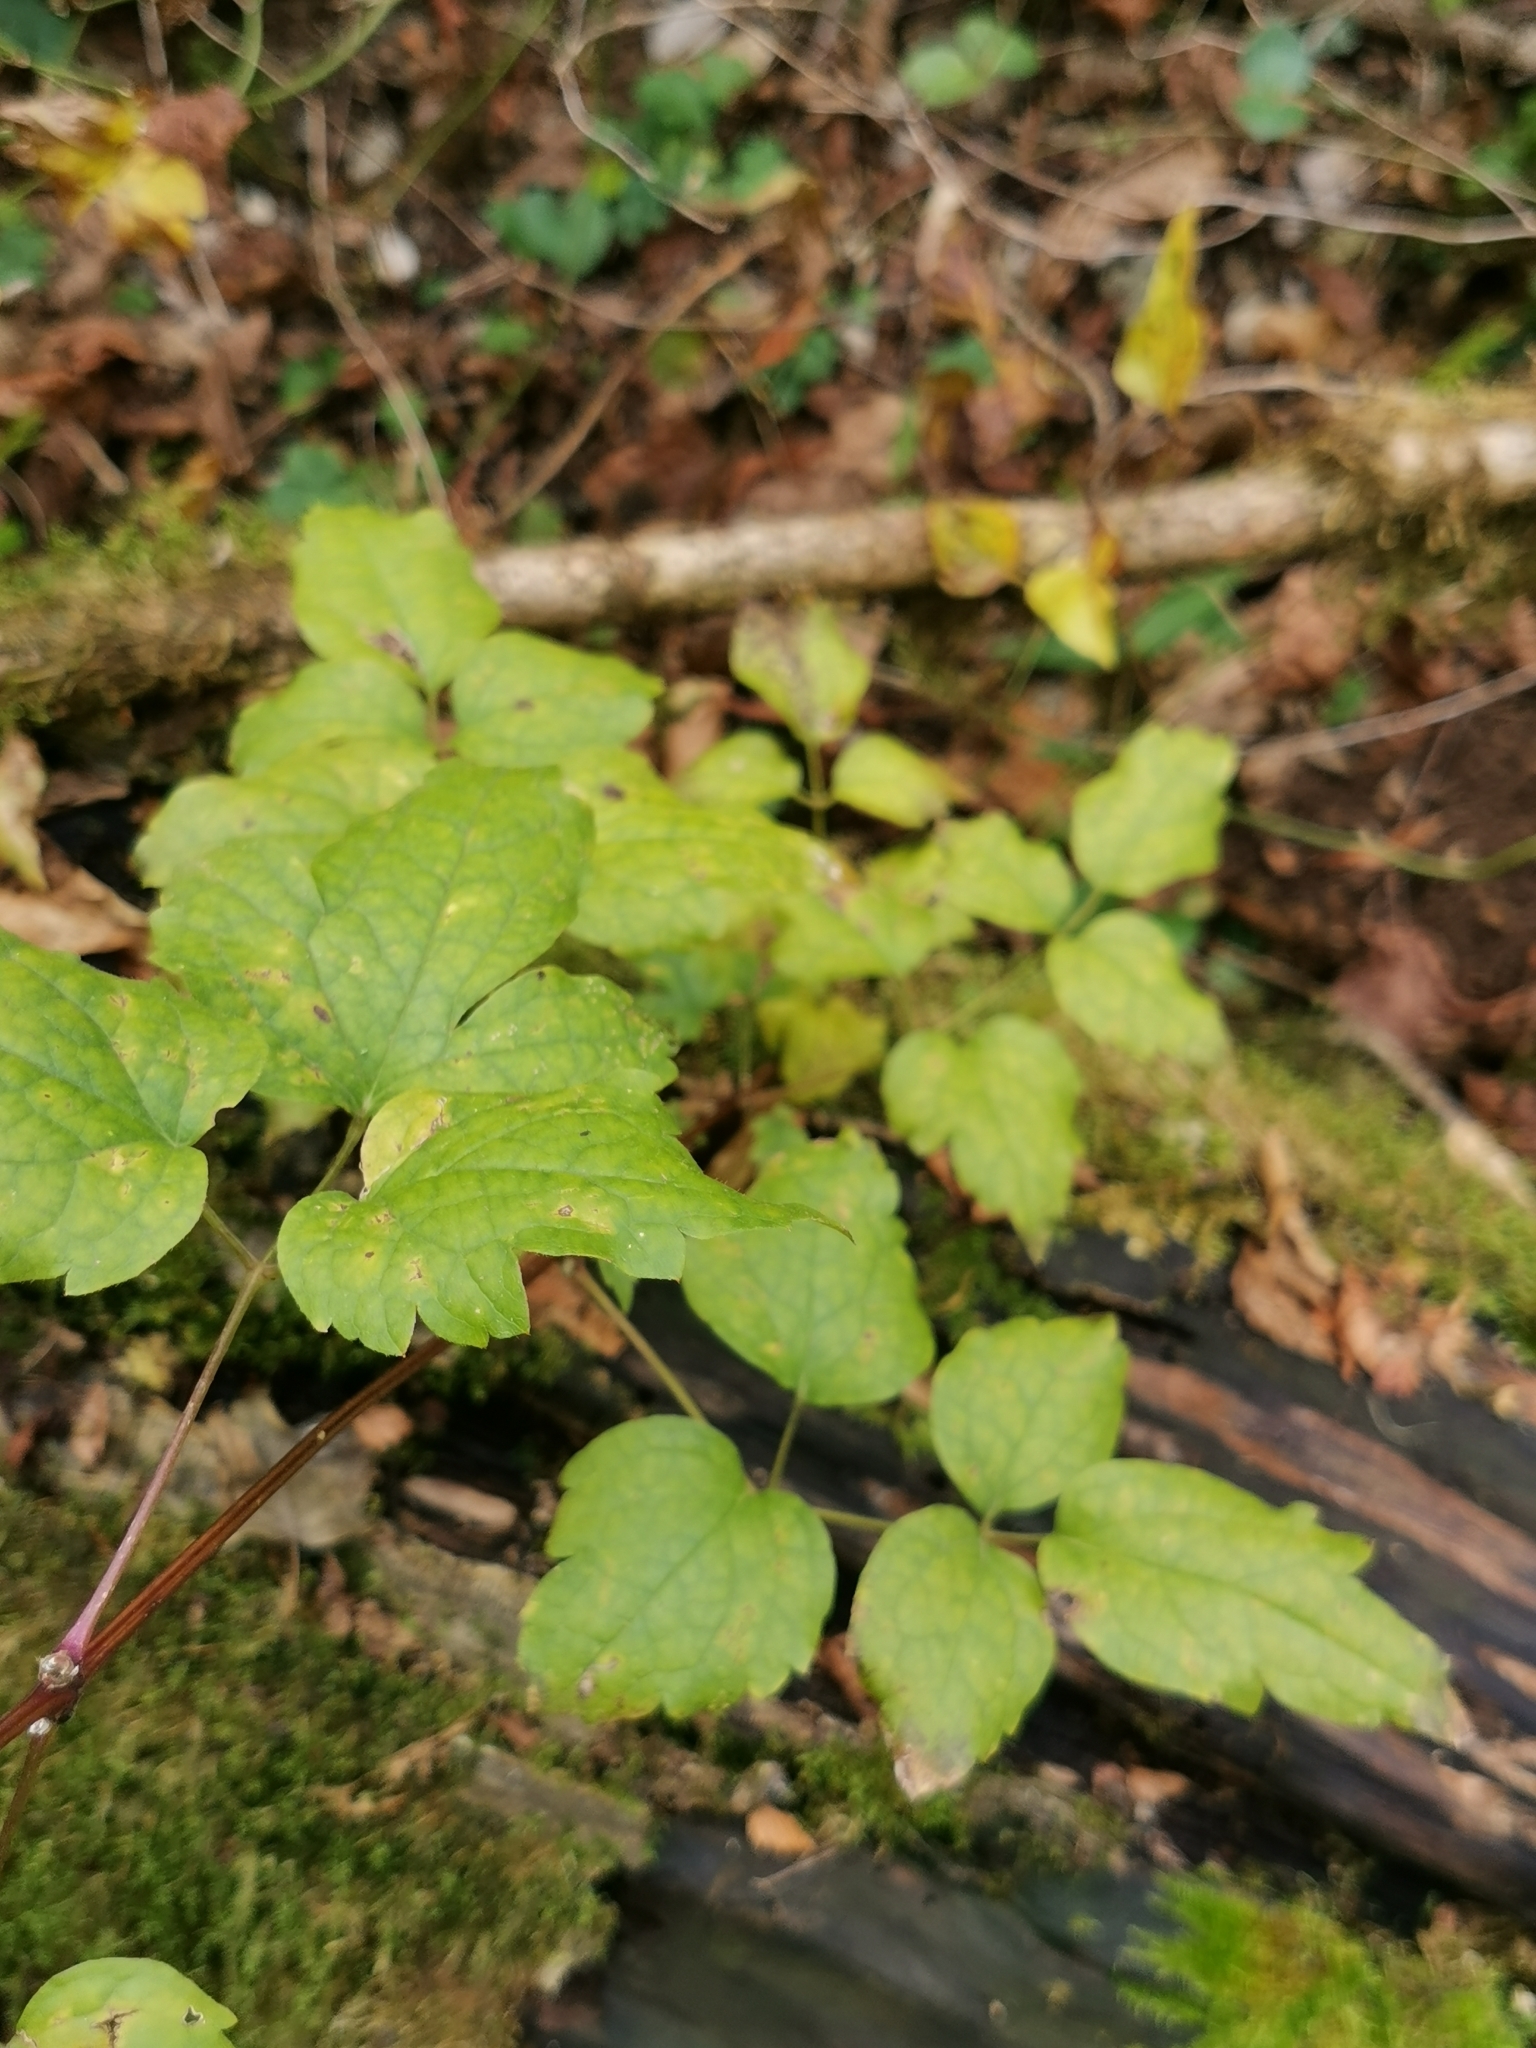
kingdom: Plantae
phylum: Tracheophyta
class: Magnoliopsida
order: Ranunculales
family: Ranunculaceae
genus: Clematis
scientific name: Clematis vitalba
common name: Evergreen clematis
